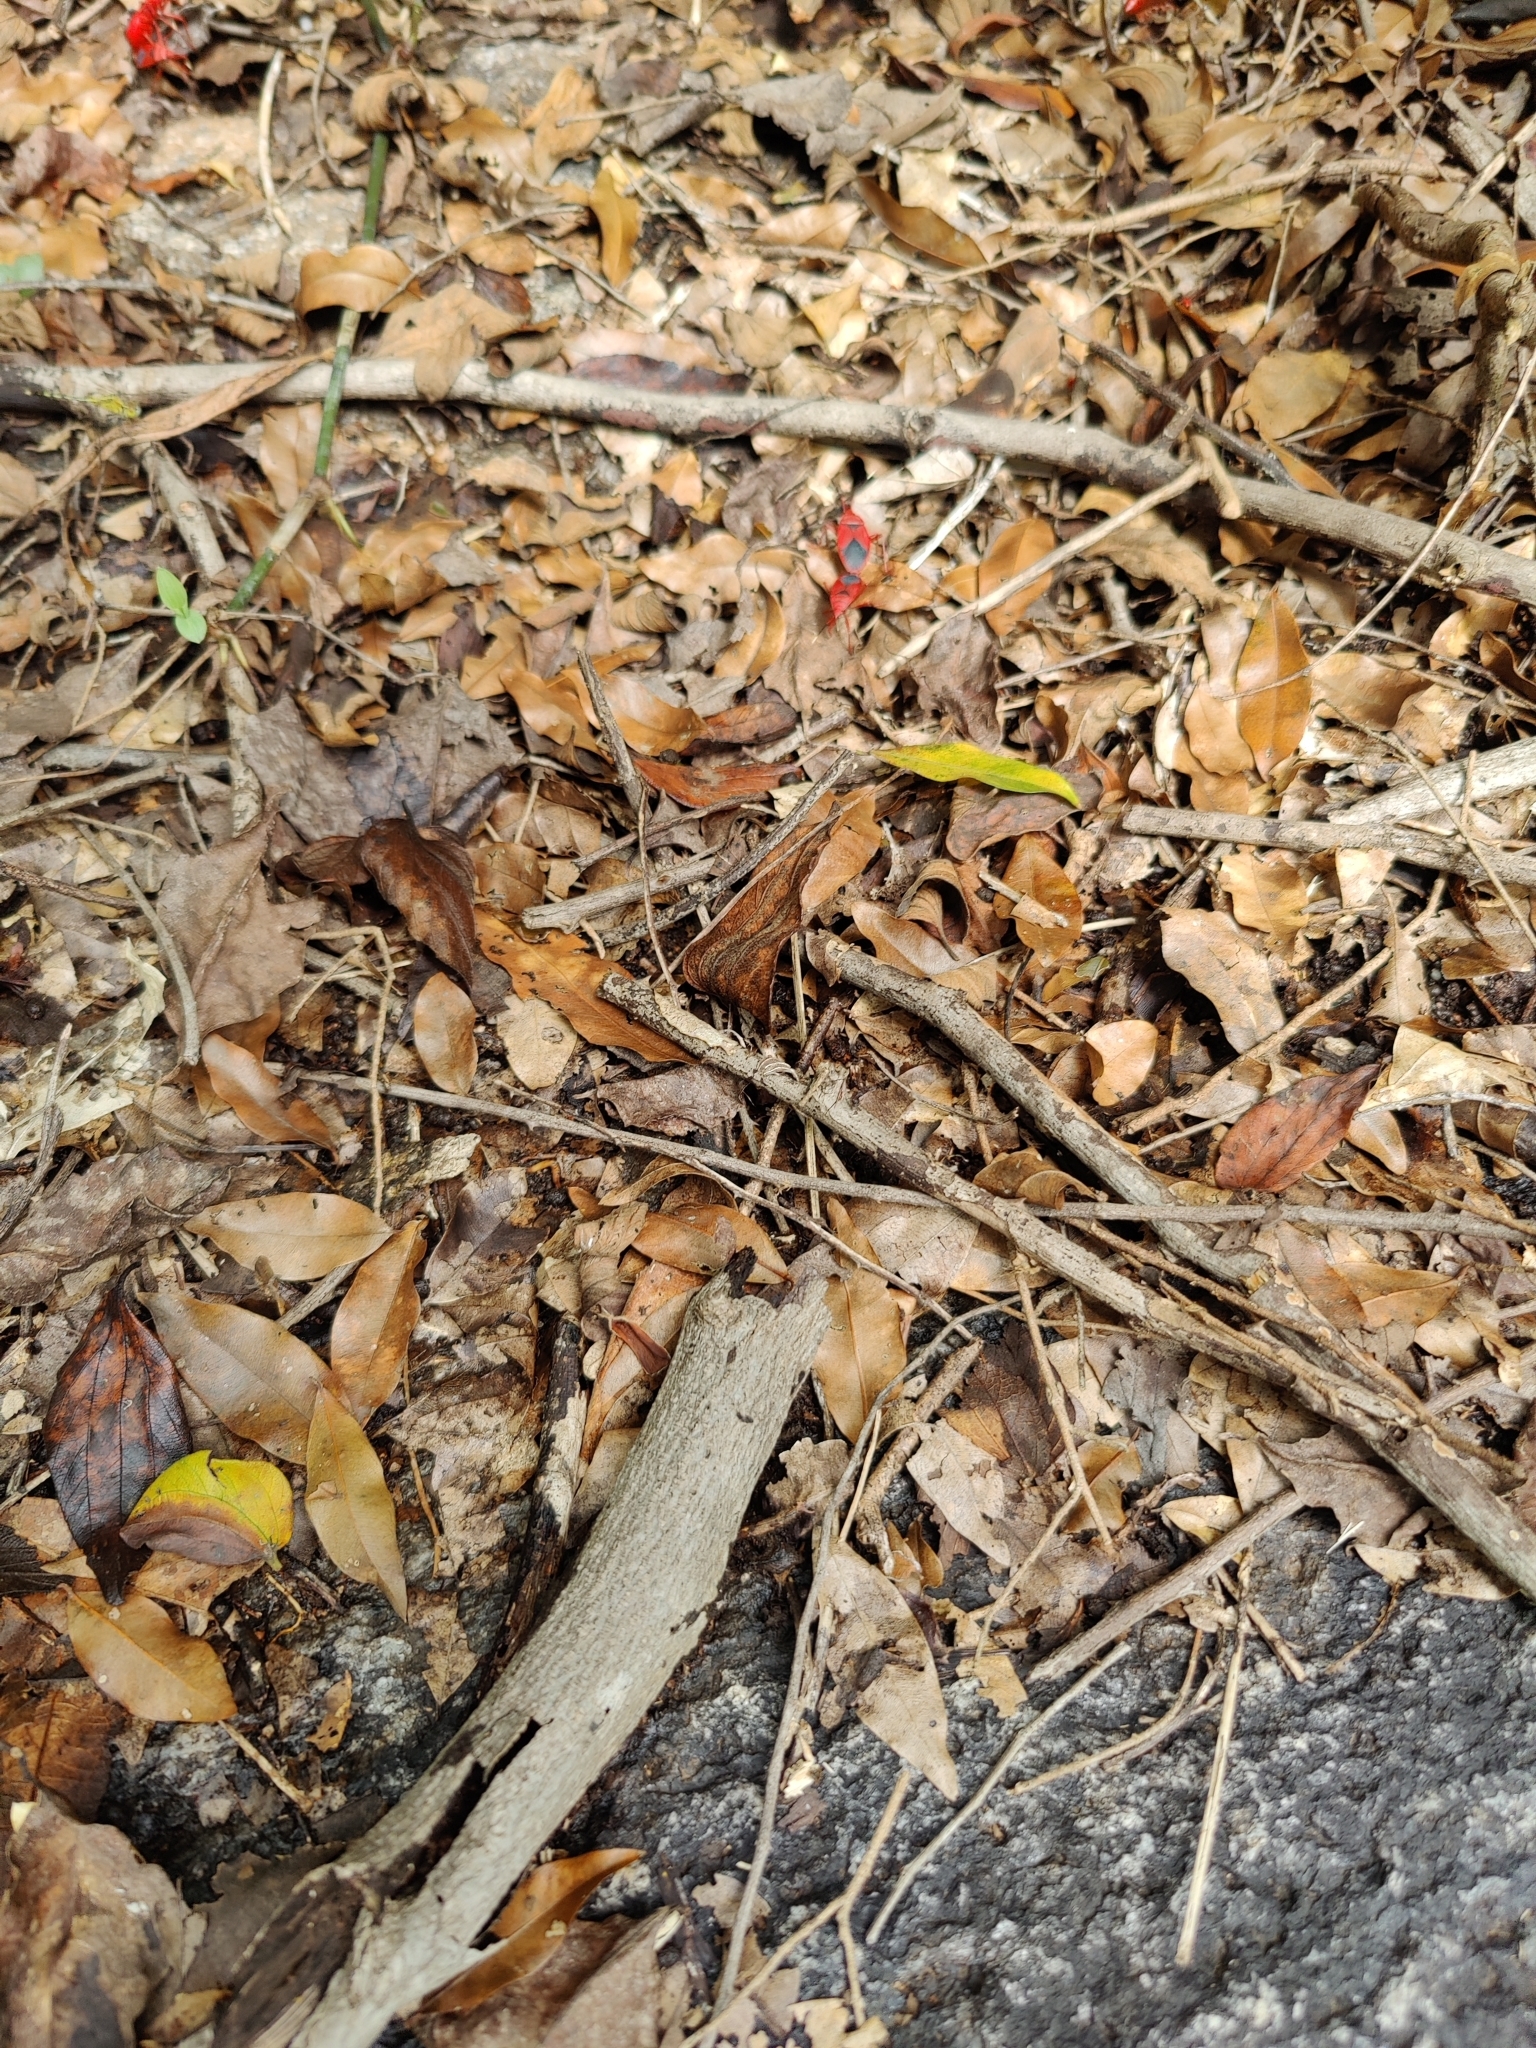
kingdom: Animalia
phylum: Arthropoda
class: Insecta
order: Odonata
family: Libellulidae
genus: Diplacodes
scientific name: Diplacodes trivialis
